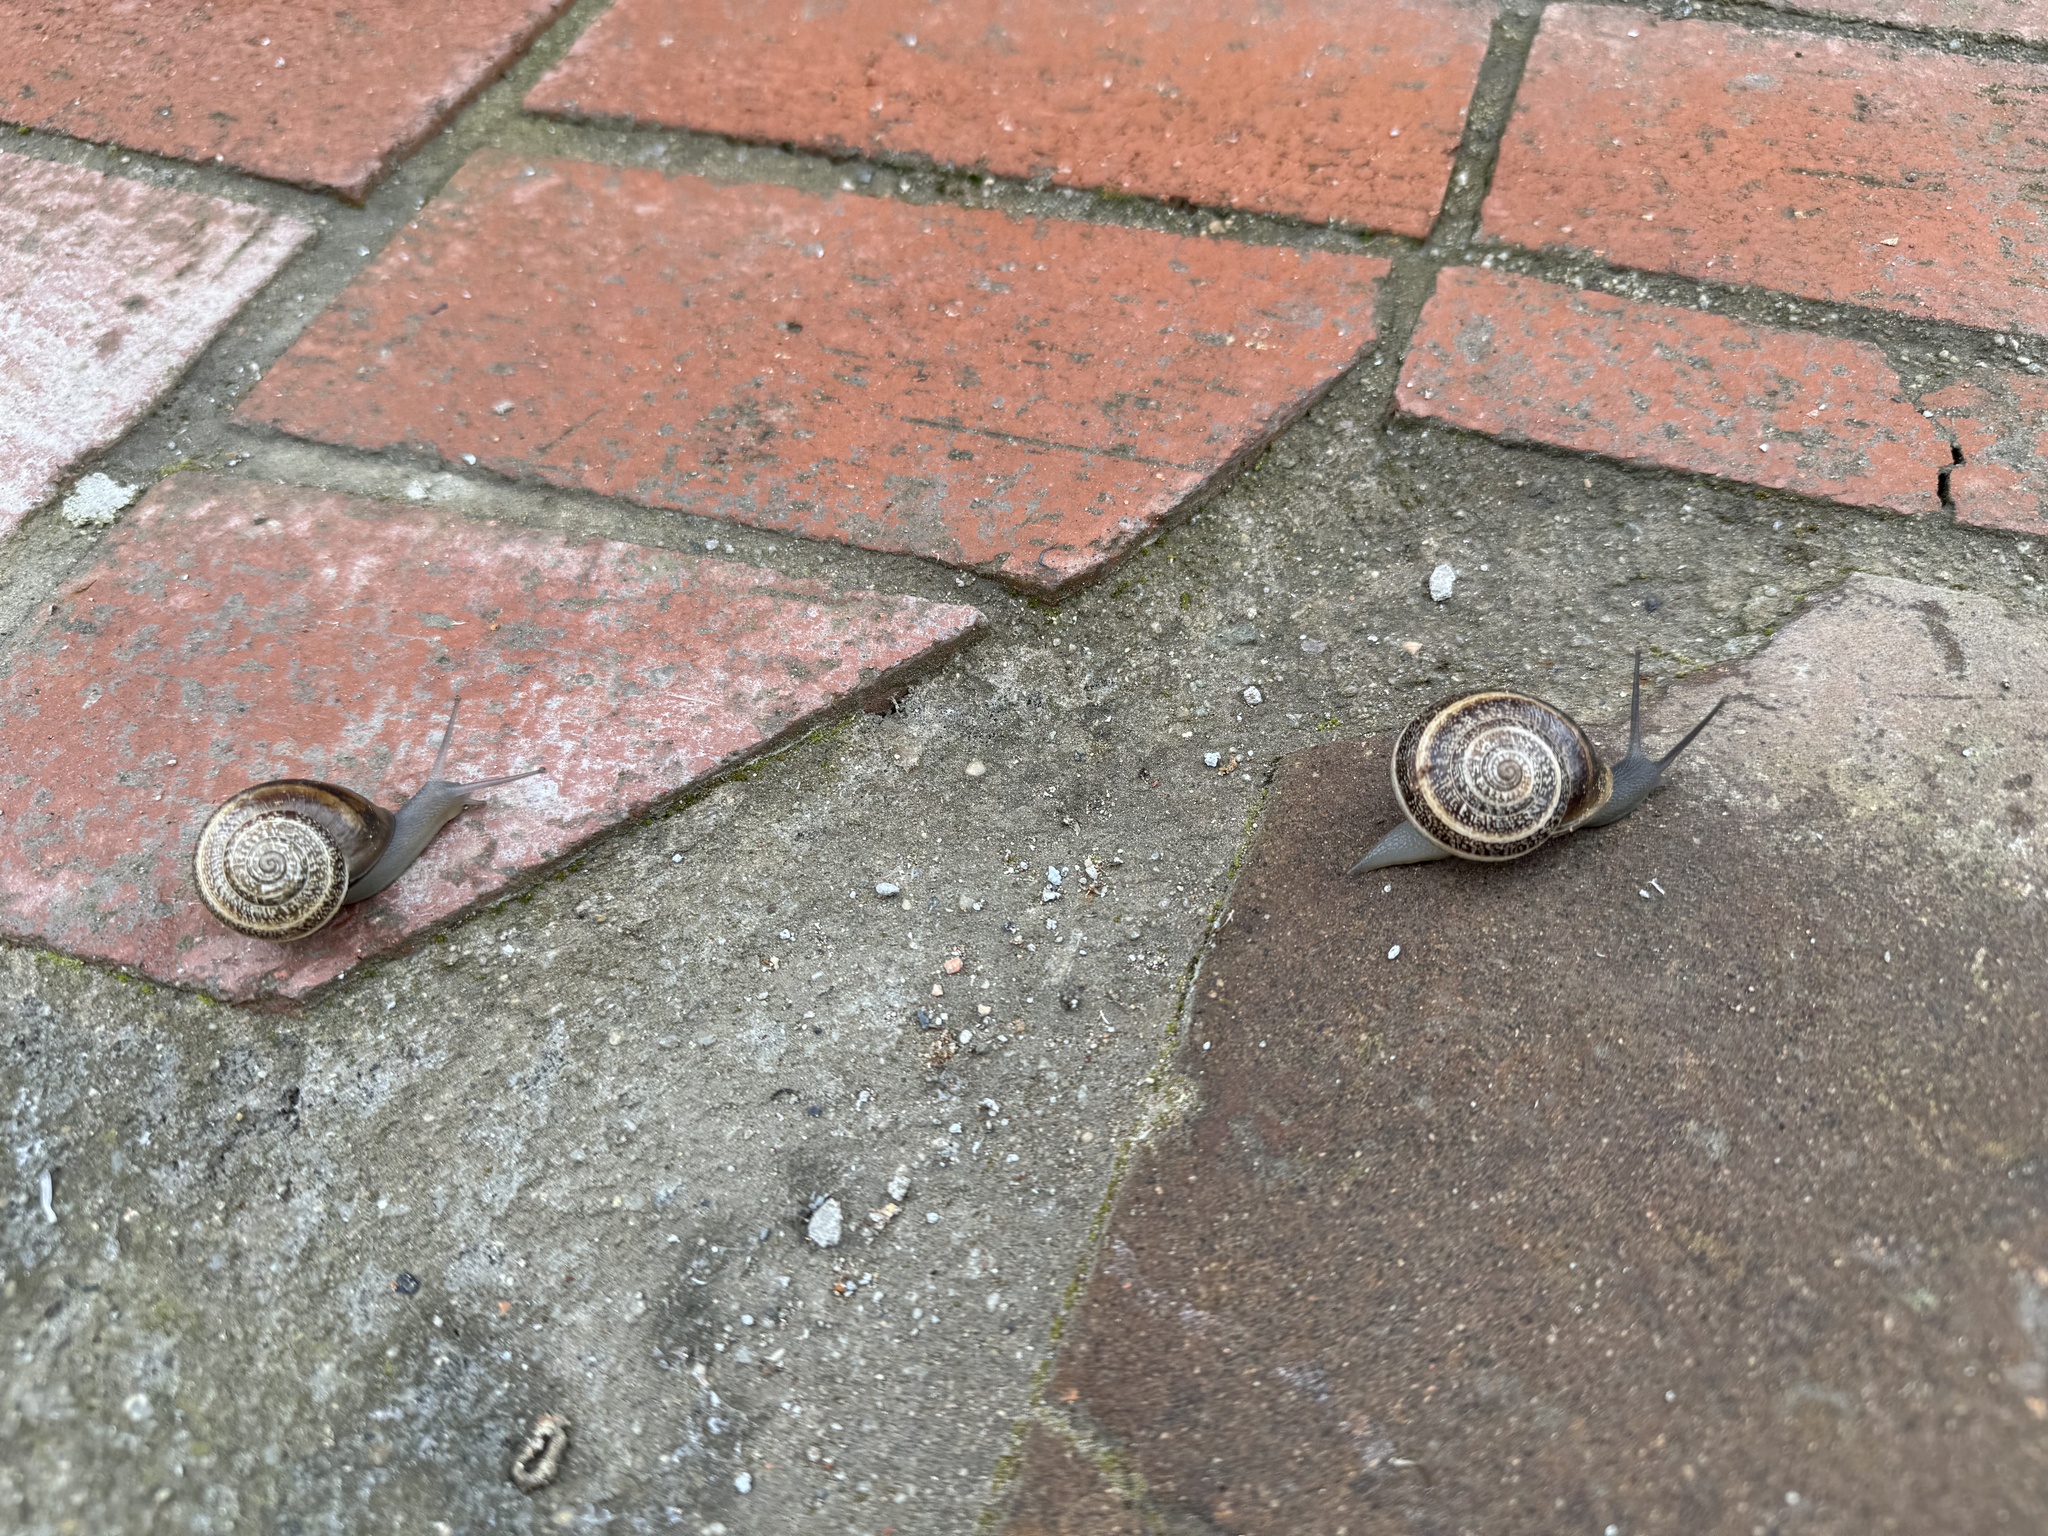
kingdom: Animalia
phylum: Mollusca
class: Gastropoda
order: Stylommatophora
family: Helicidae
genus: Otala
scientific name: Otala lactea
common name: Milk snail
